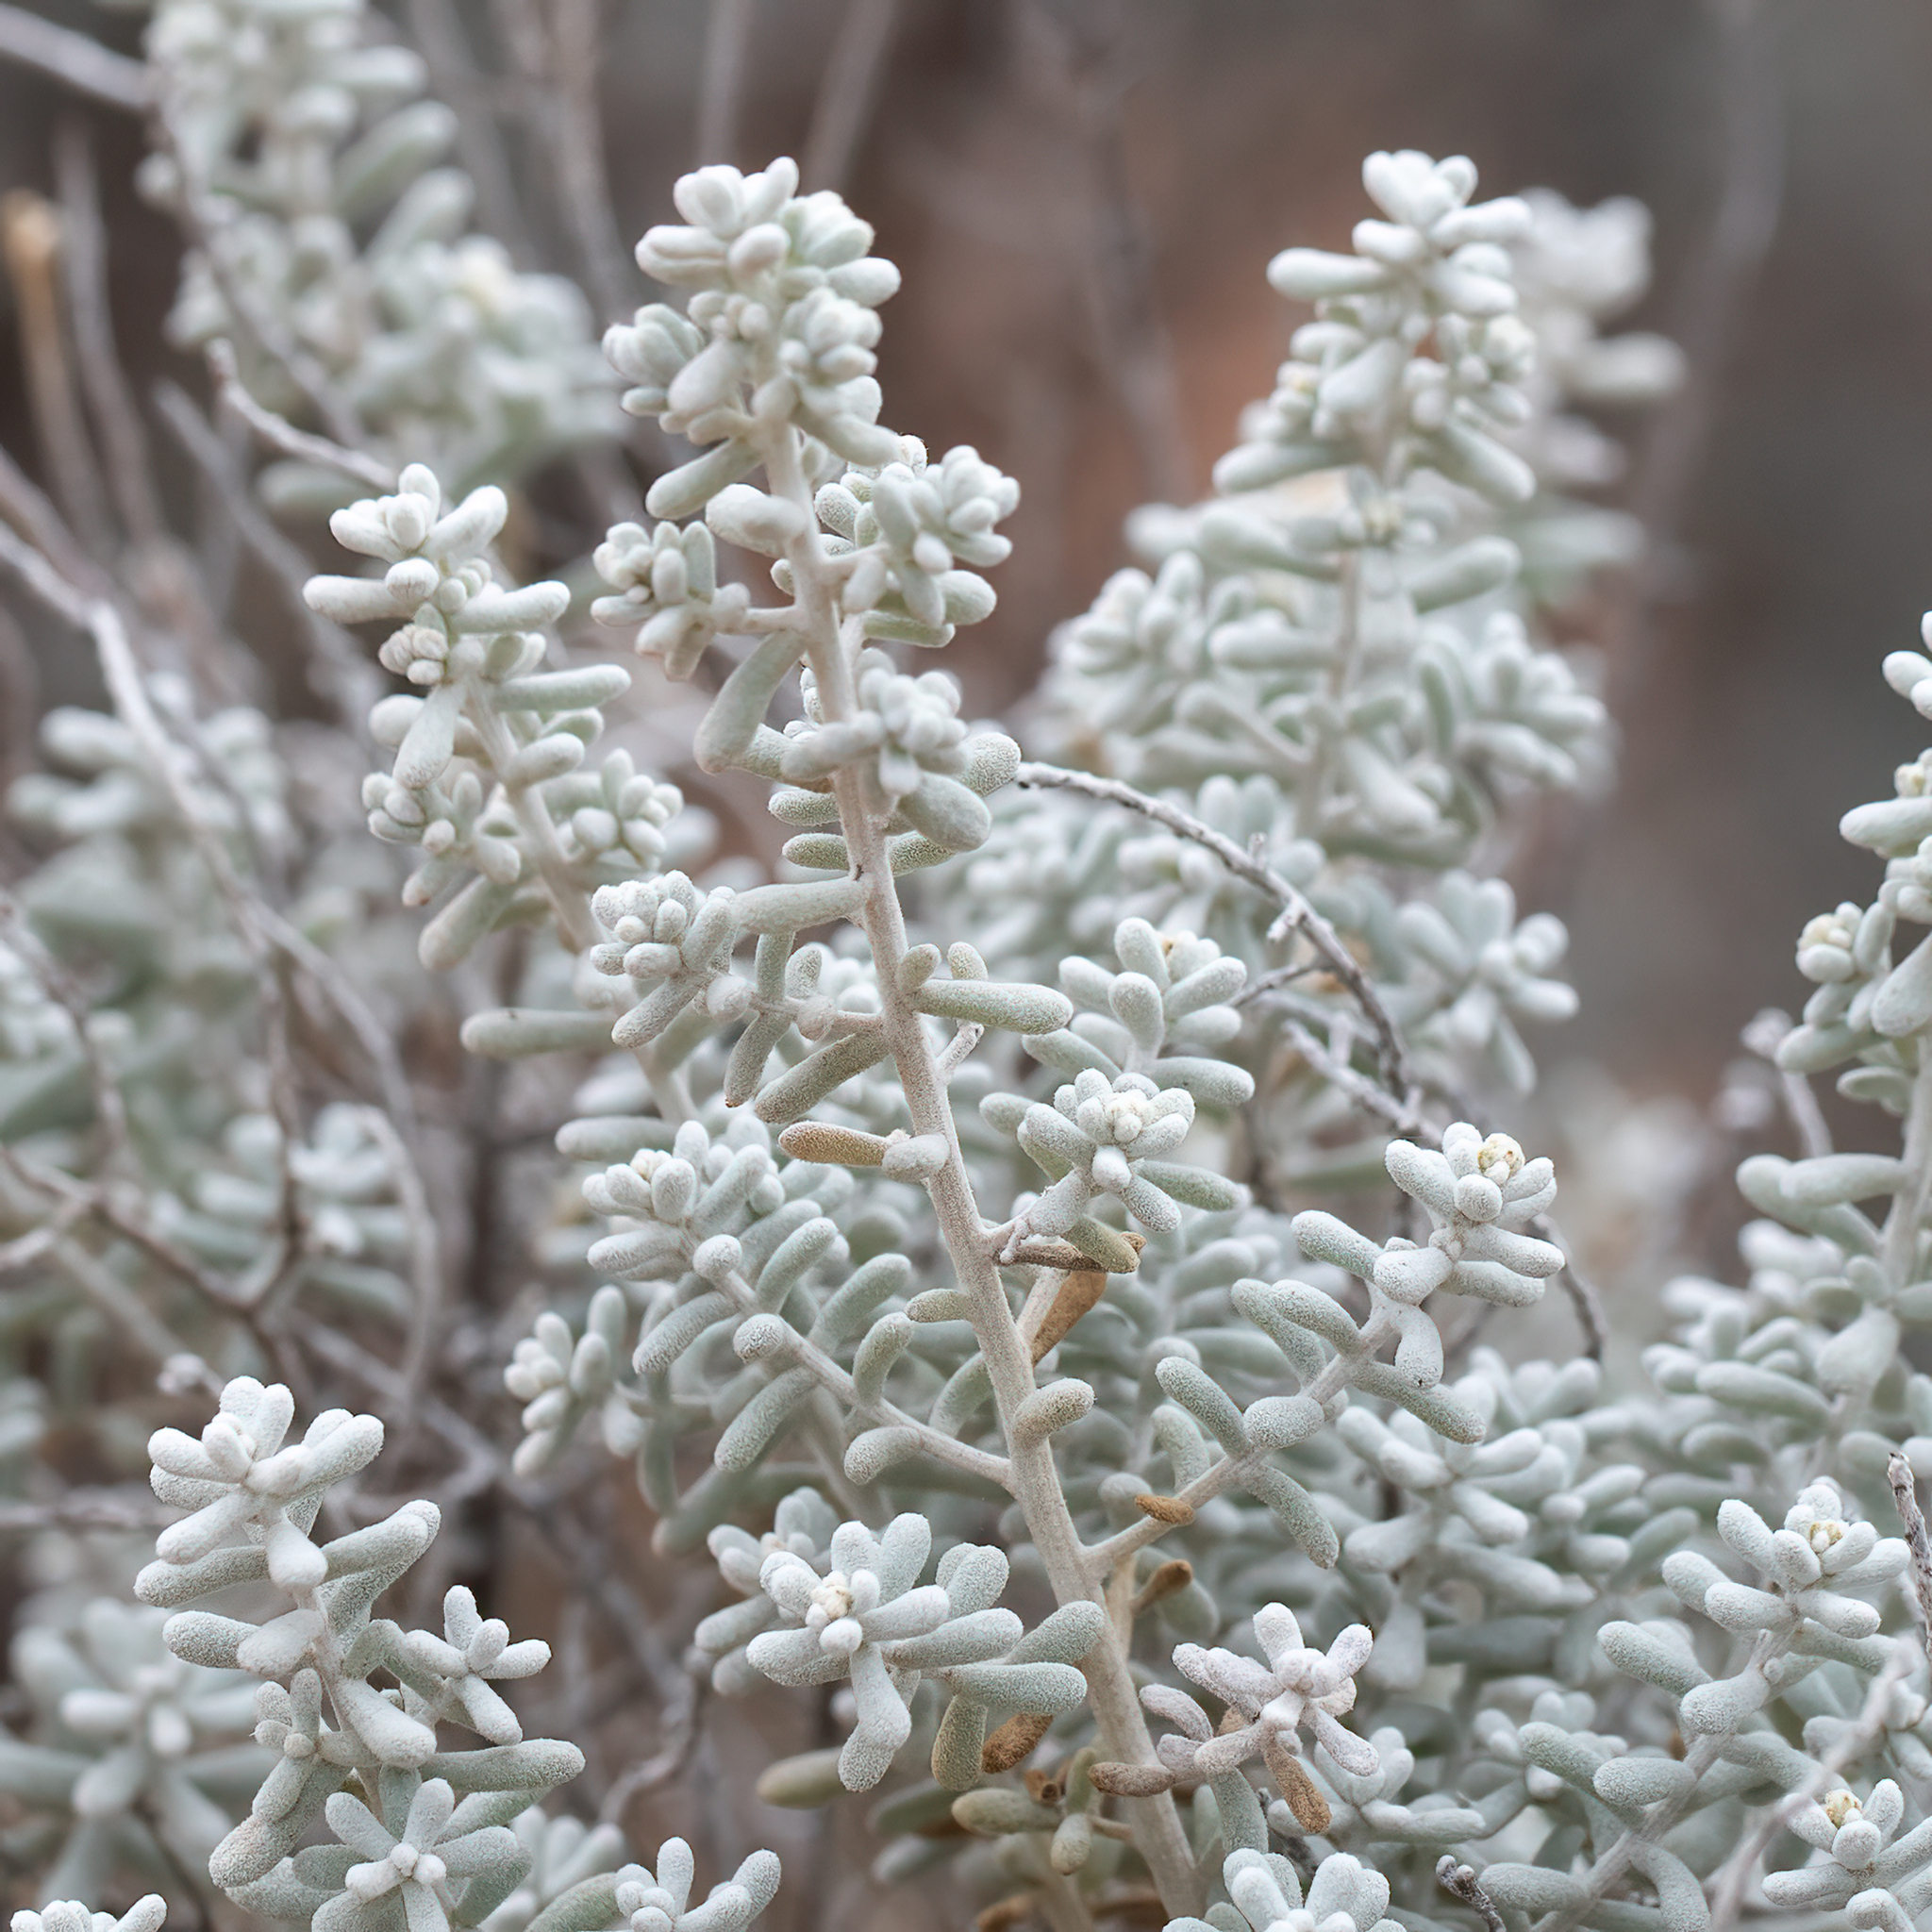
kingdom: Plantae
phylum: Tracheophyta
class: Magnoliopsida
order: Caryophyllales
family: Amaranthaceae
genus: Maireana
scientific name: Maireana sedifolia
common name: Hoary bluebush
